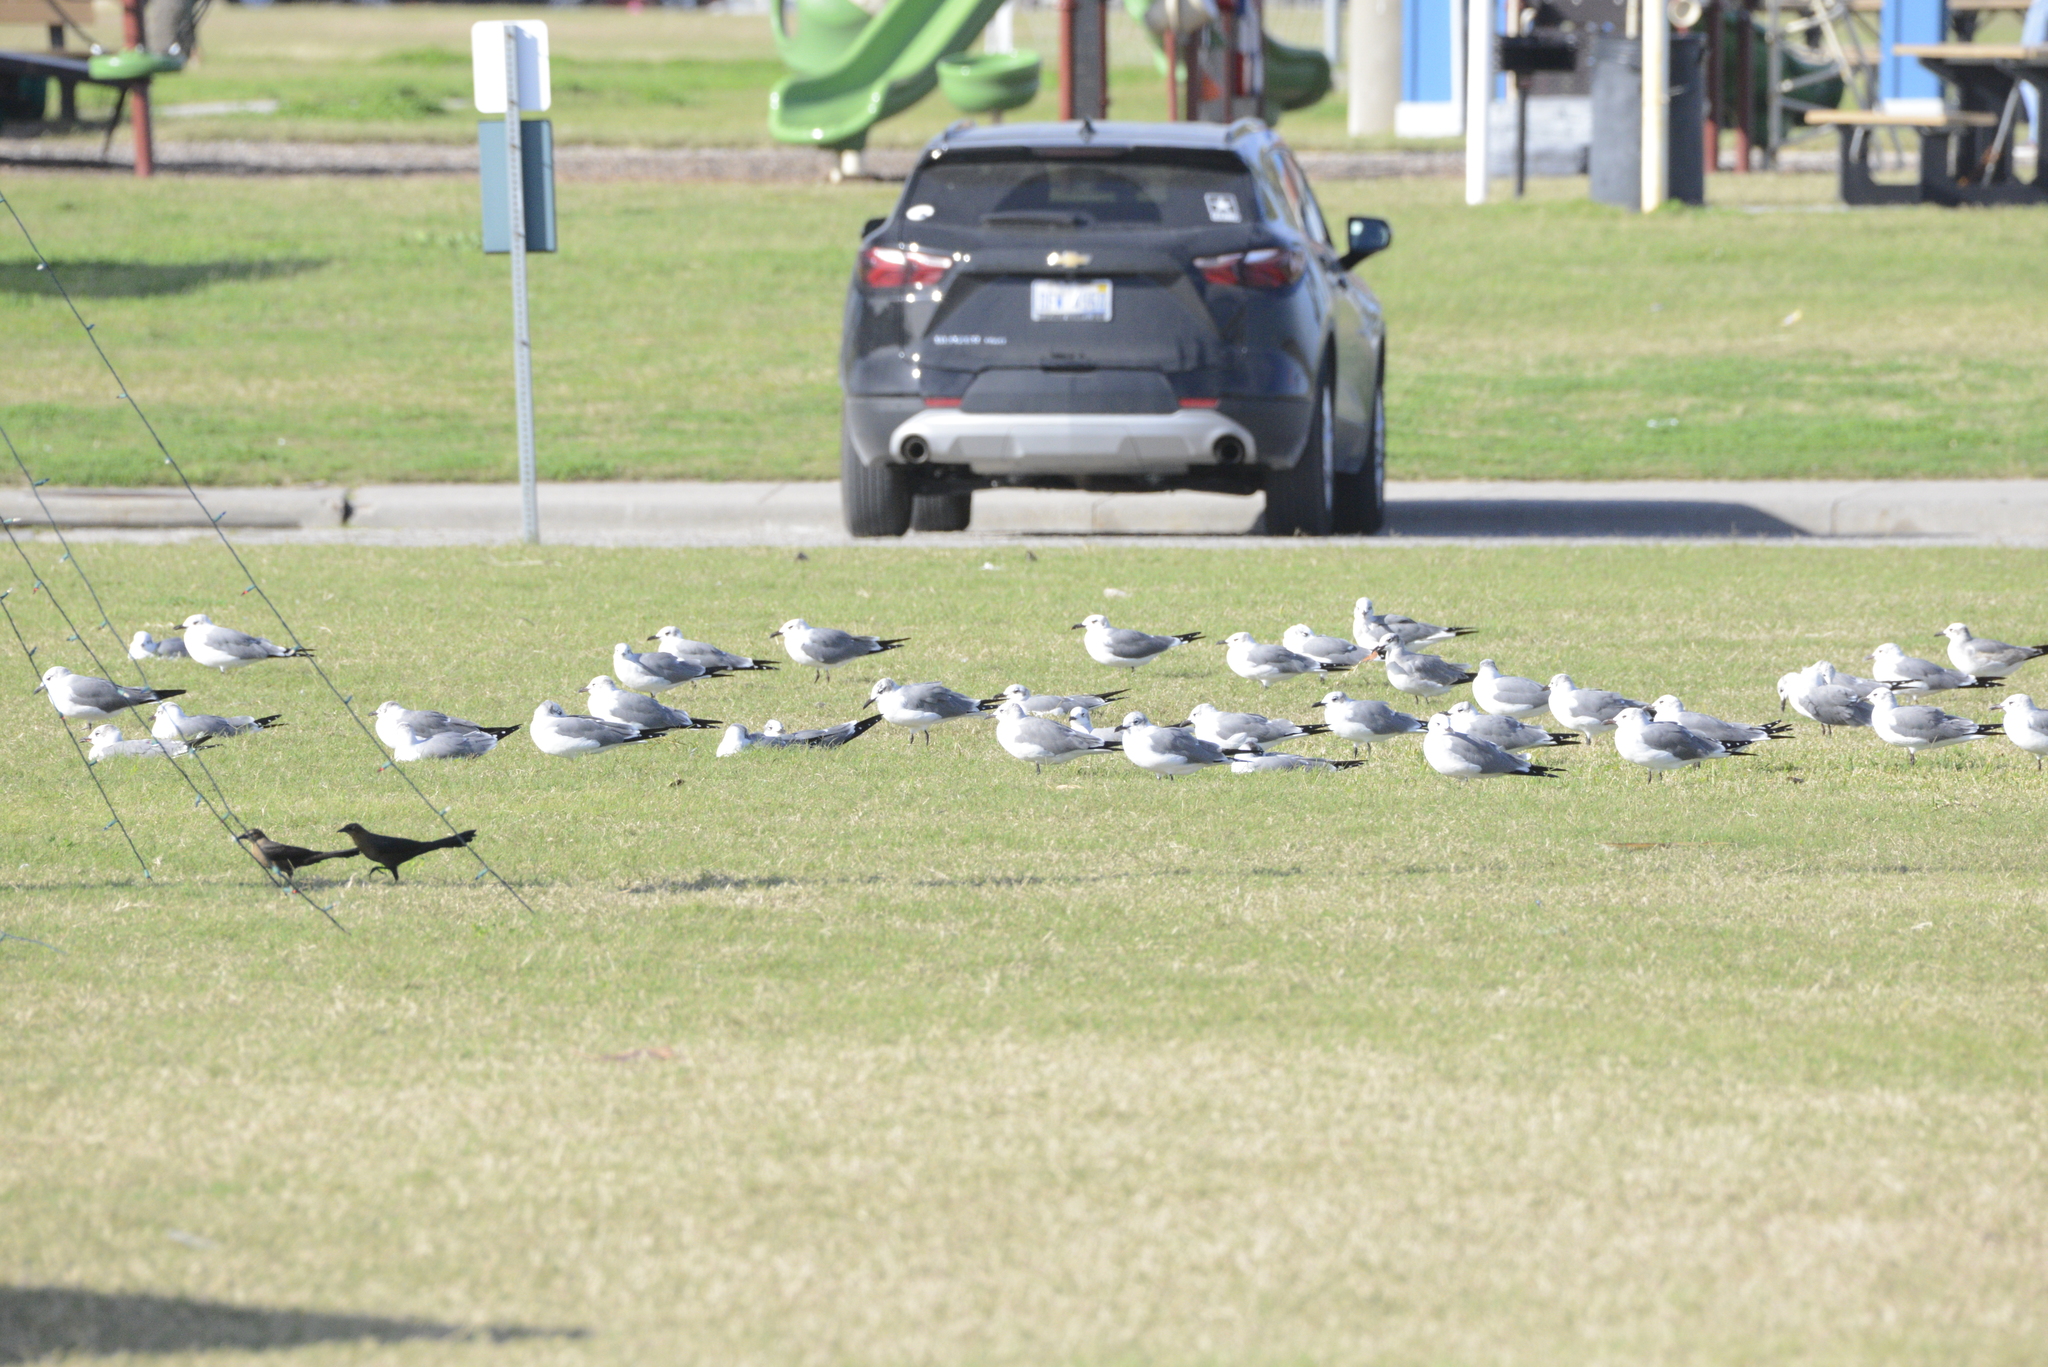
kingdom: Animalia
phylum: Chordata
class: Aves
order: Passeriformes
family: Icteridae
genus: Quiscalus
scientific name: Quiscalus mexicanus
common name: Great-tailed grackle
